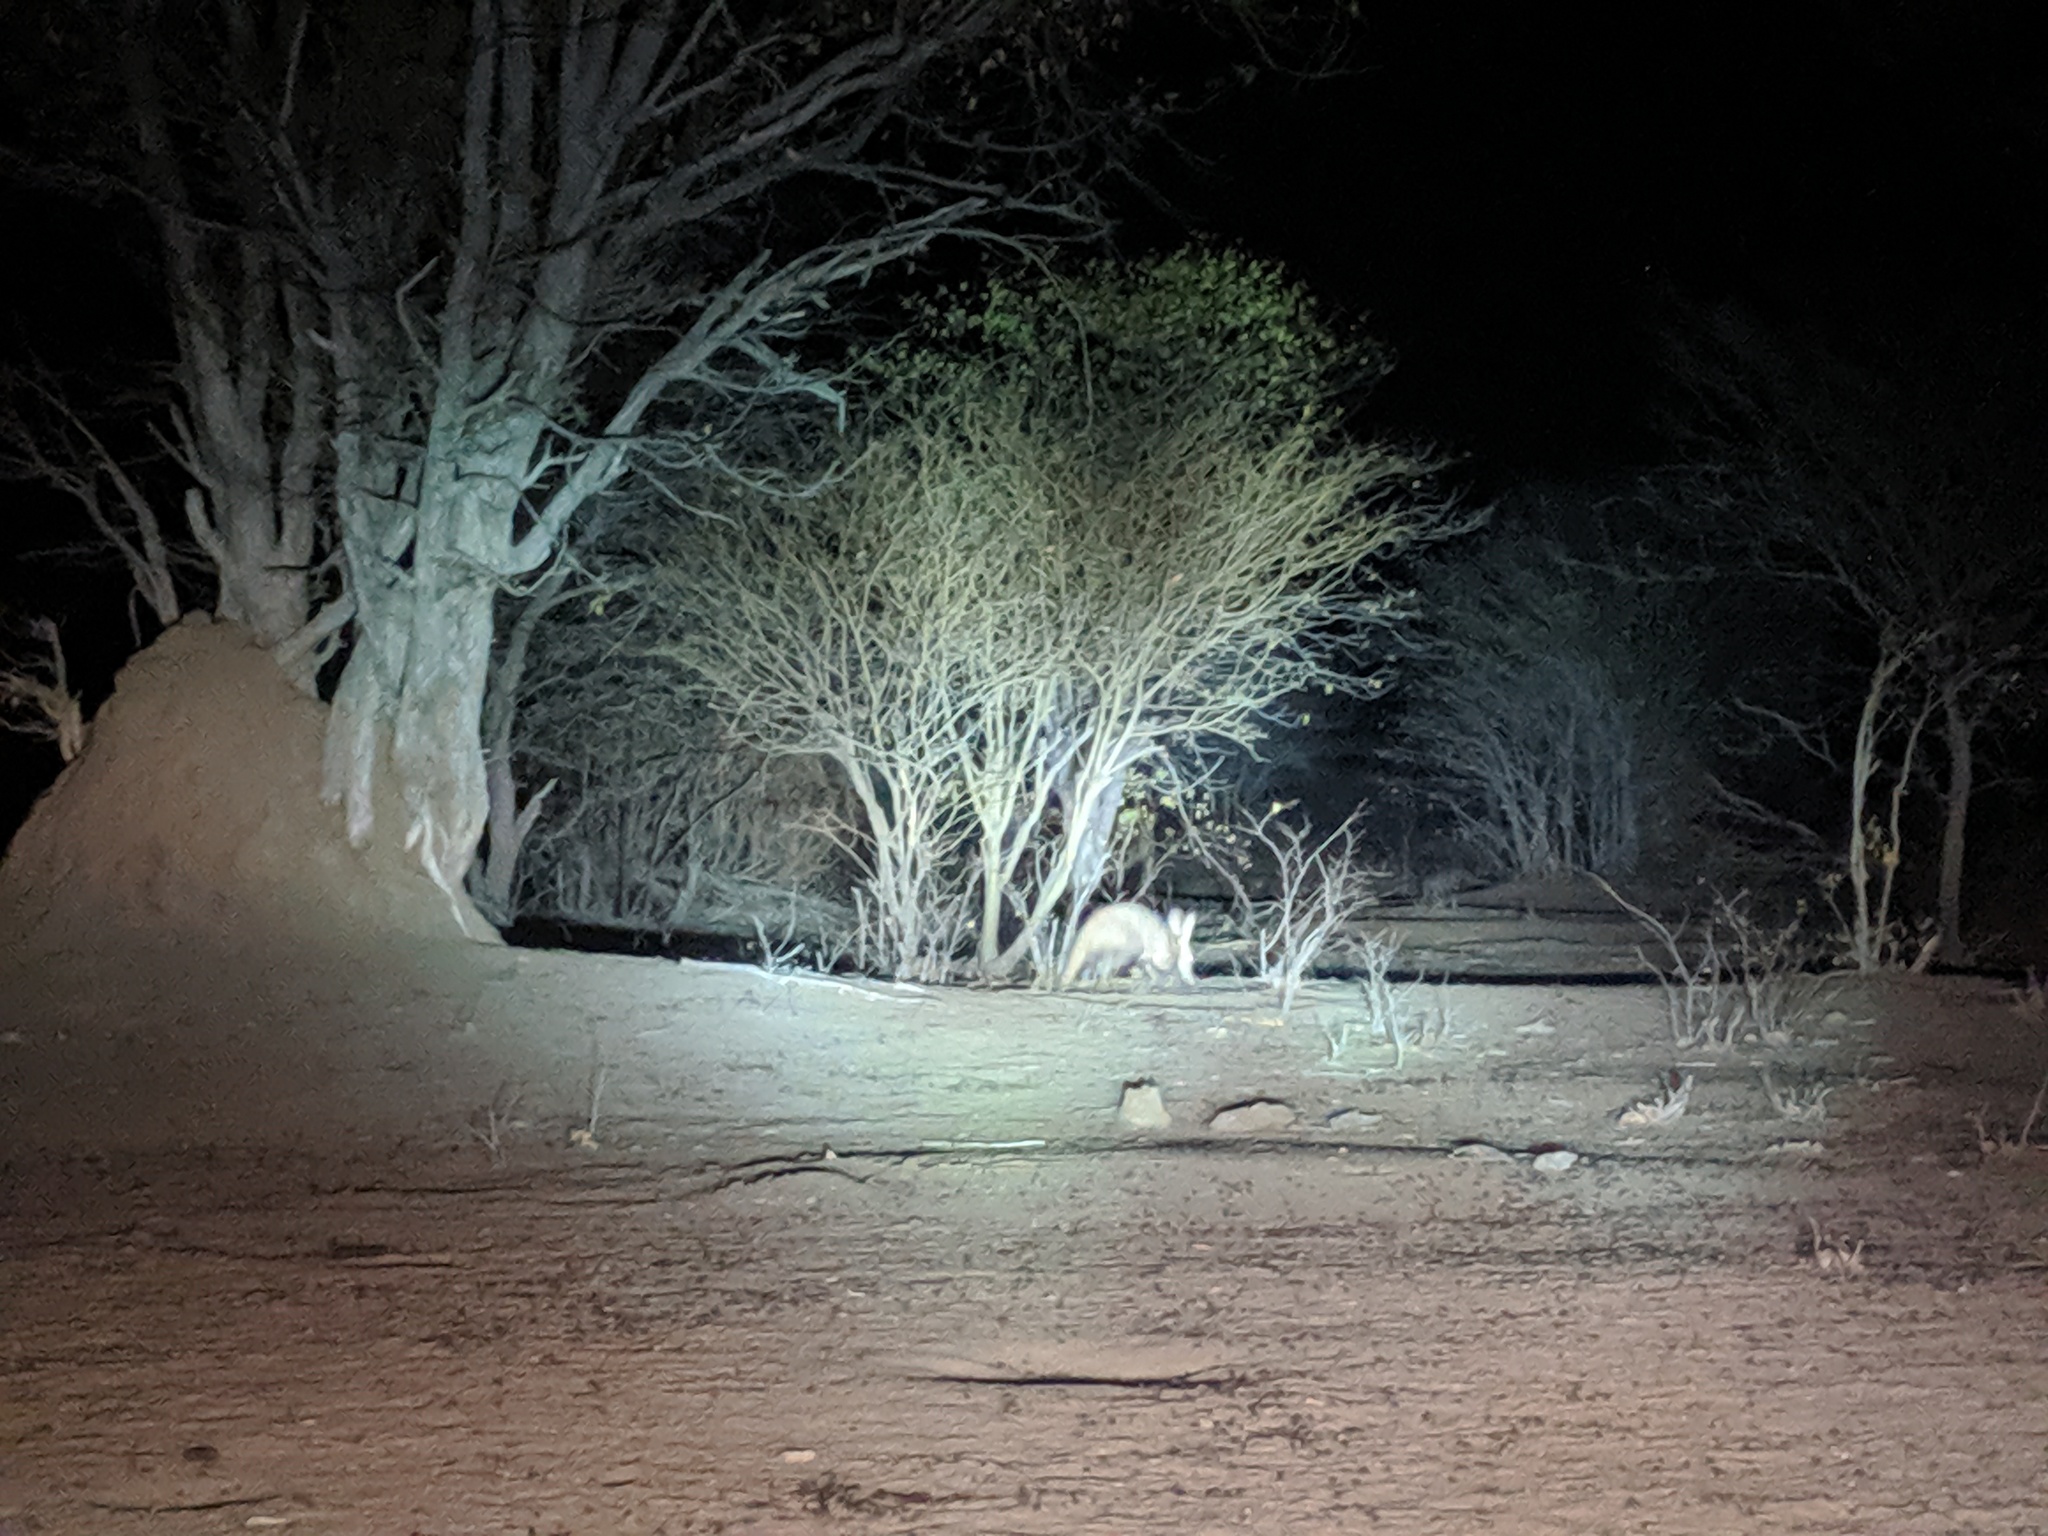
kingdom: Animalia
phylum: Chordata
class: Mammalia
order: Tubulidentata
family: Orycteropodidae
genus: Orycteropus
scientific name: Orycteropus afer
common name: Aardvark
